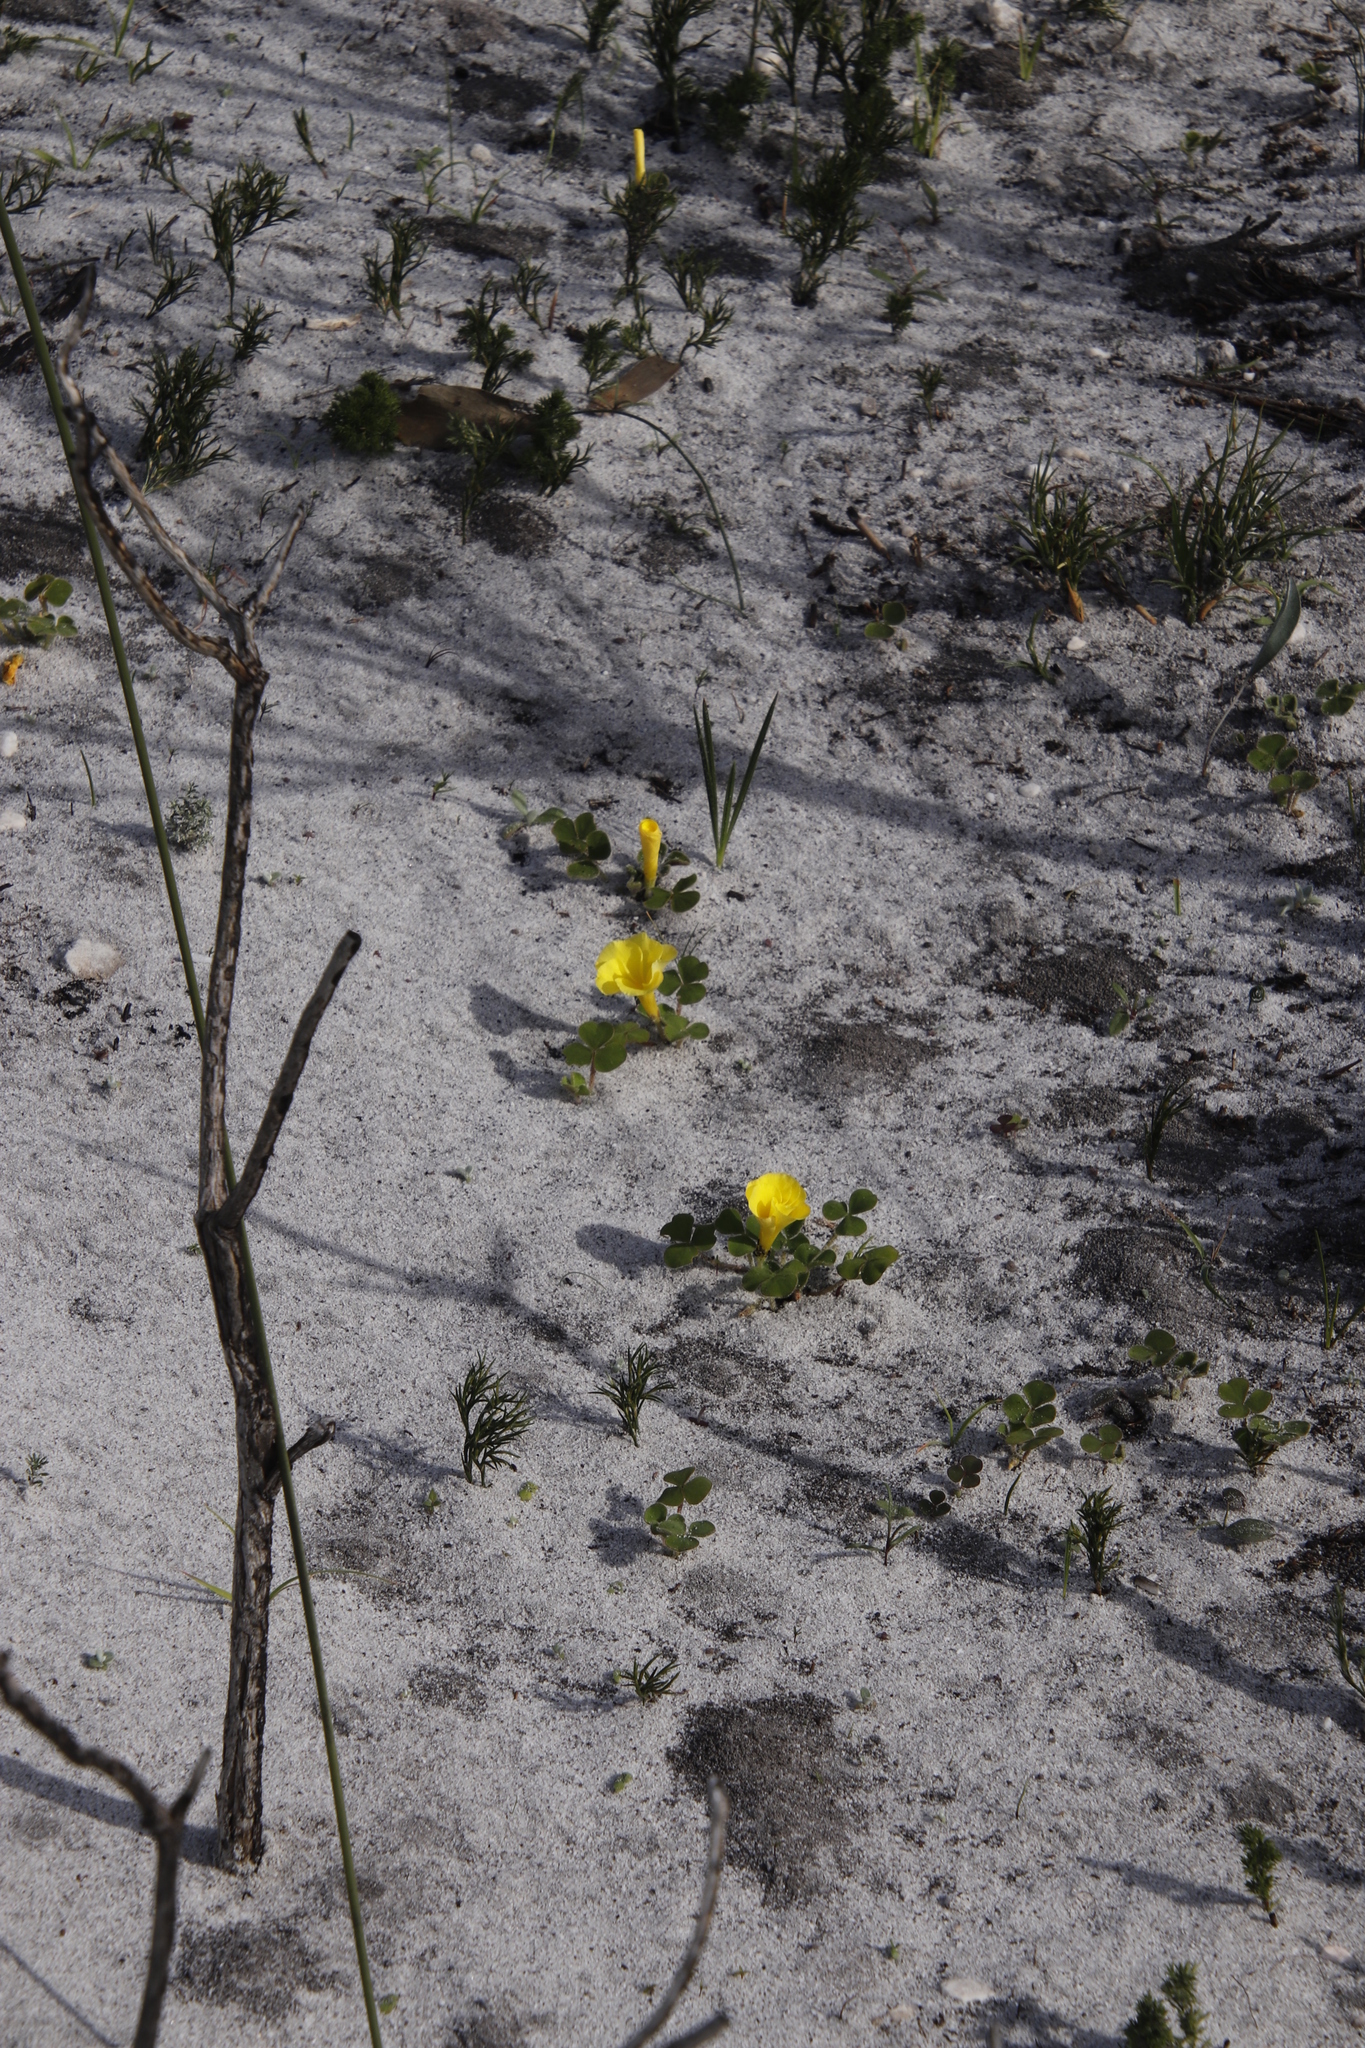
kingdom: Plantae
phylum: Tracheophyta
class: Magnoliopsida
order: Oxalidales
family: Oxalidaceae
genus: Oxalis
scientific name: Oxalis luteola
